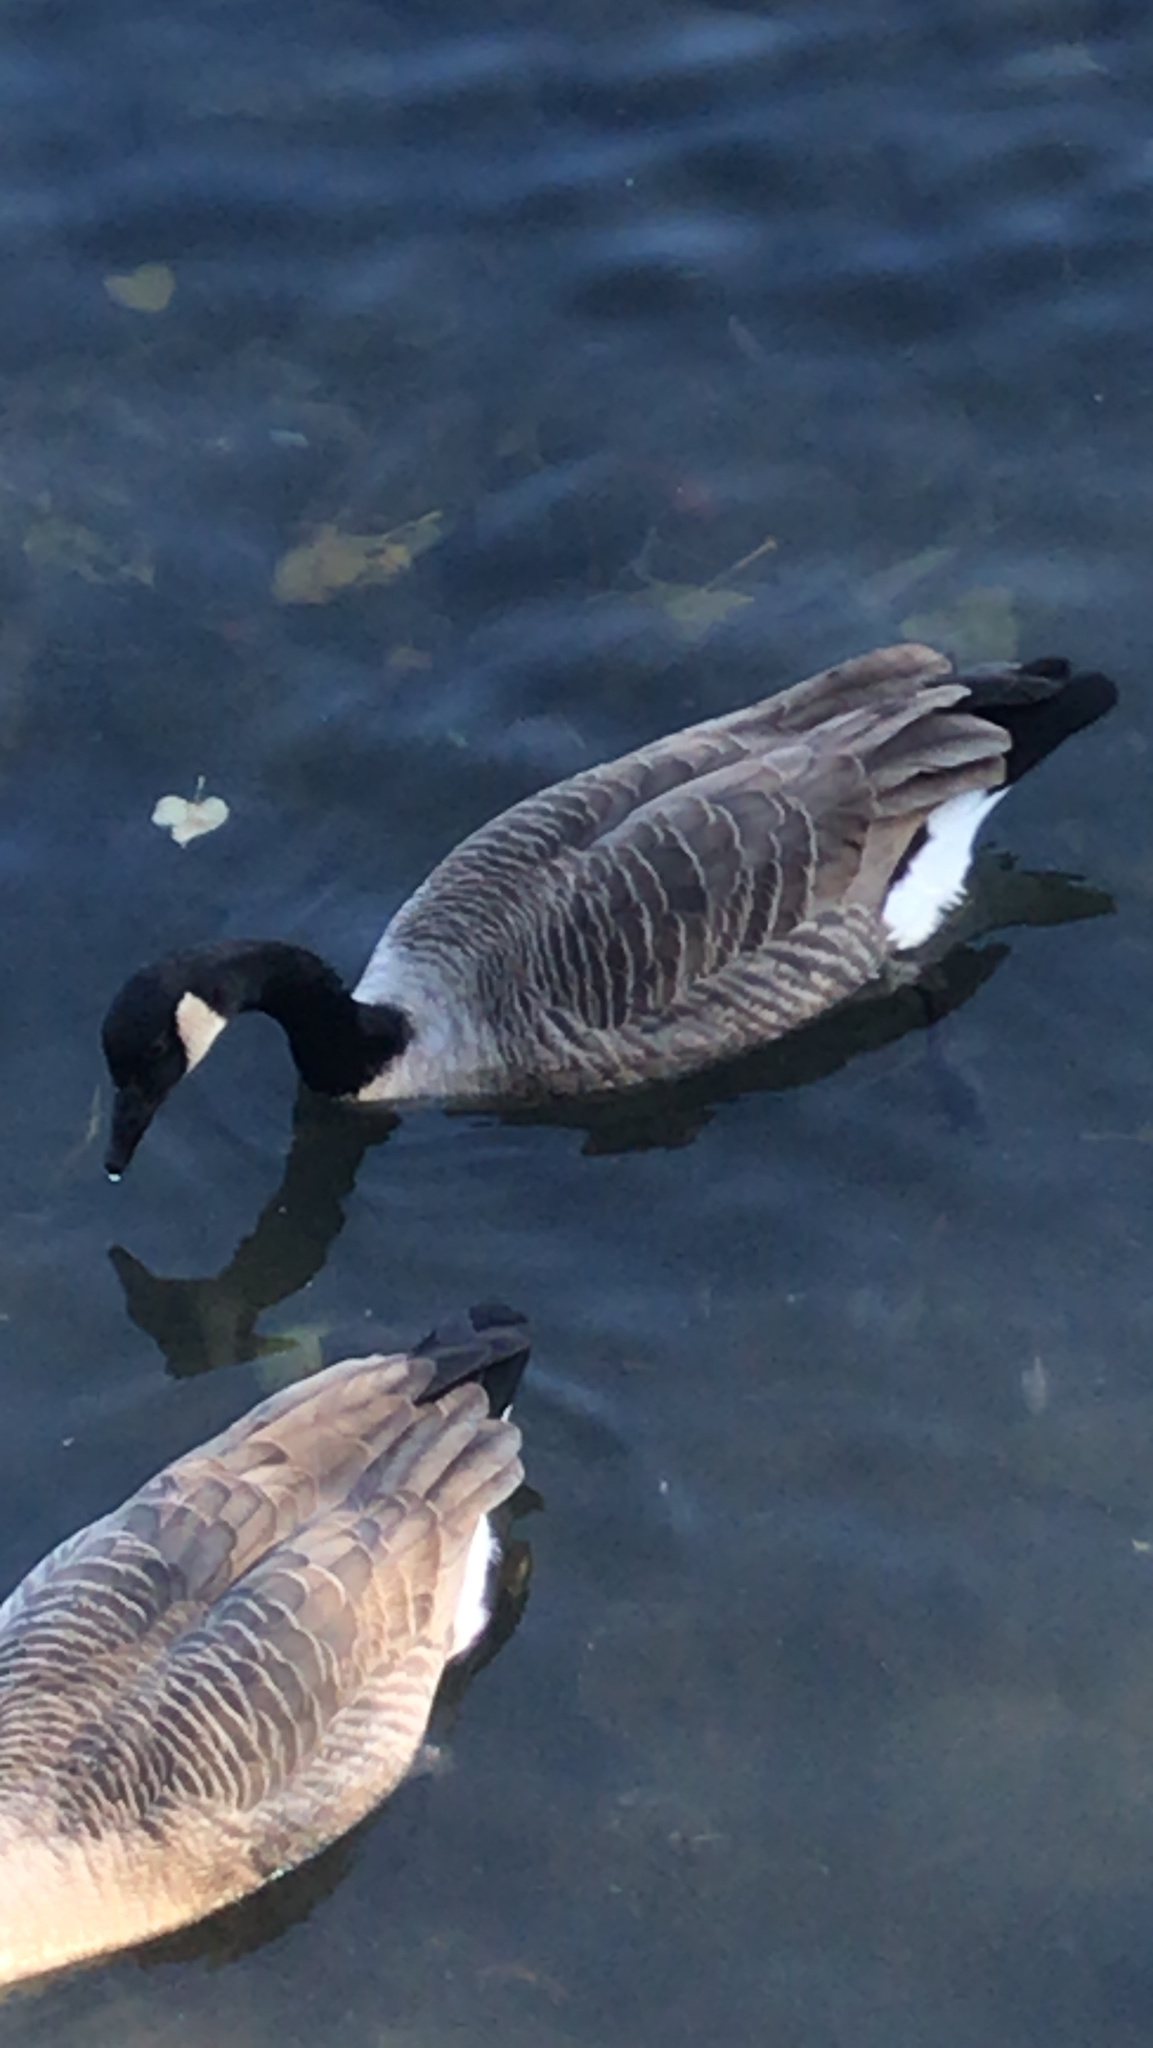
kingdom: Animalia
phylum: Chordata
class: Aves
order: Anseriformes
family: Anatidae
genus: Branta
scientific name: Branta canadensis
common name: Canada goose
